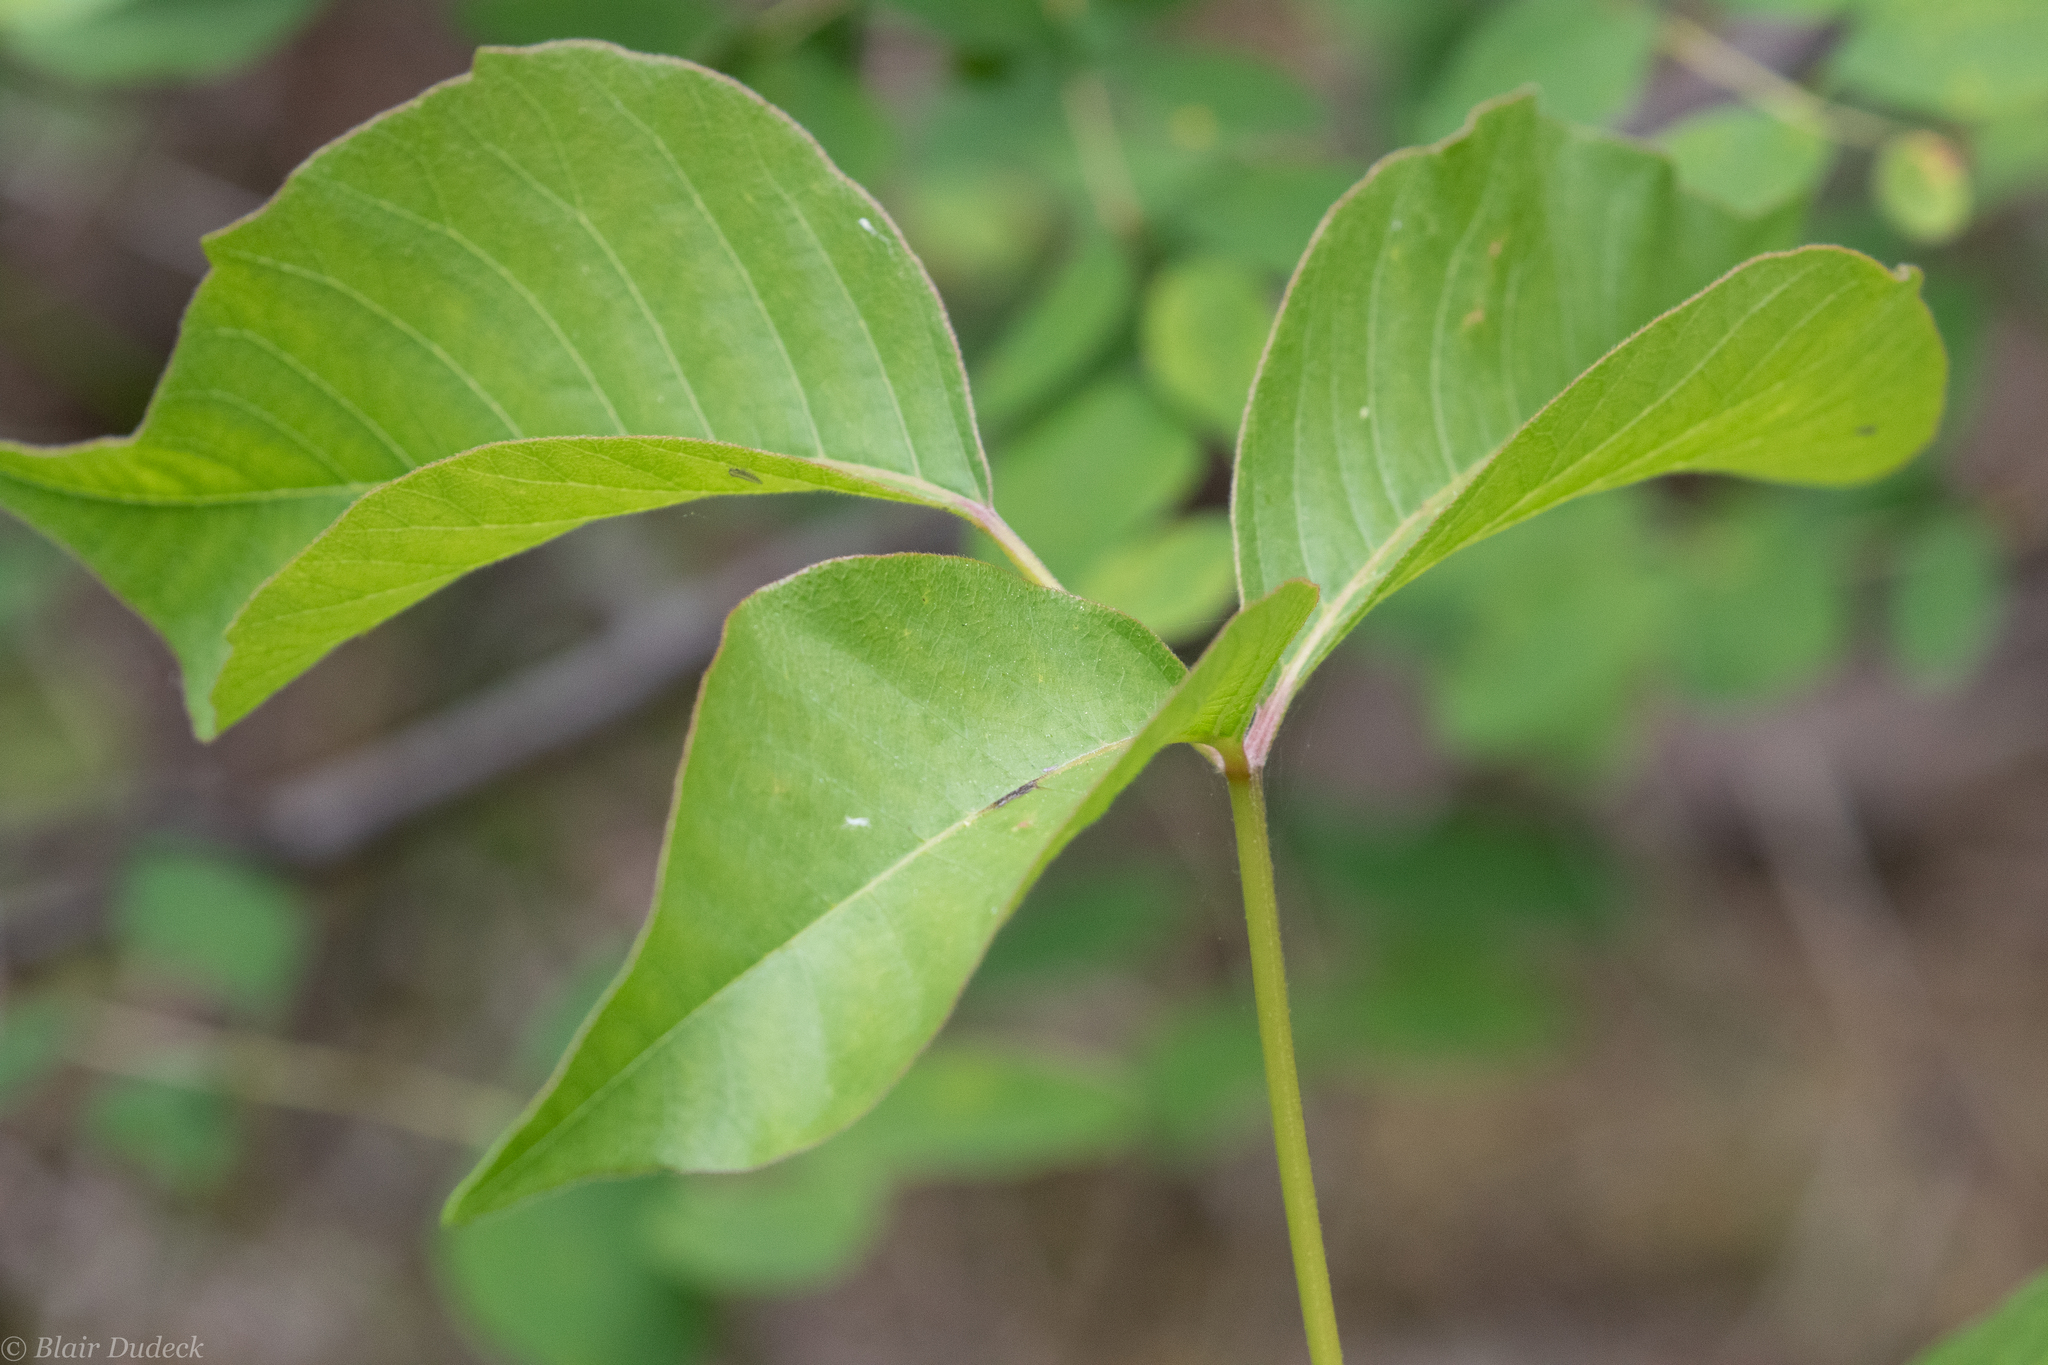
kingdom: Plantae
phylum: Tracheophyta
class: Magnoliopsida
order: Sapindales
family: Anacardiaceae
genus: Toxicodendron
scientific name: Toxicodendron rydbergii
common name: Rydberg's poison-ivy
